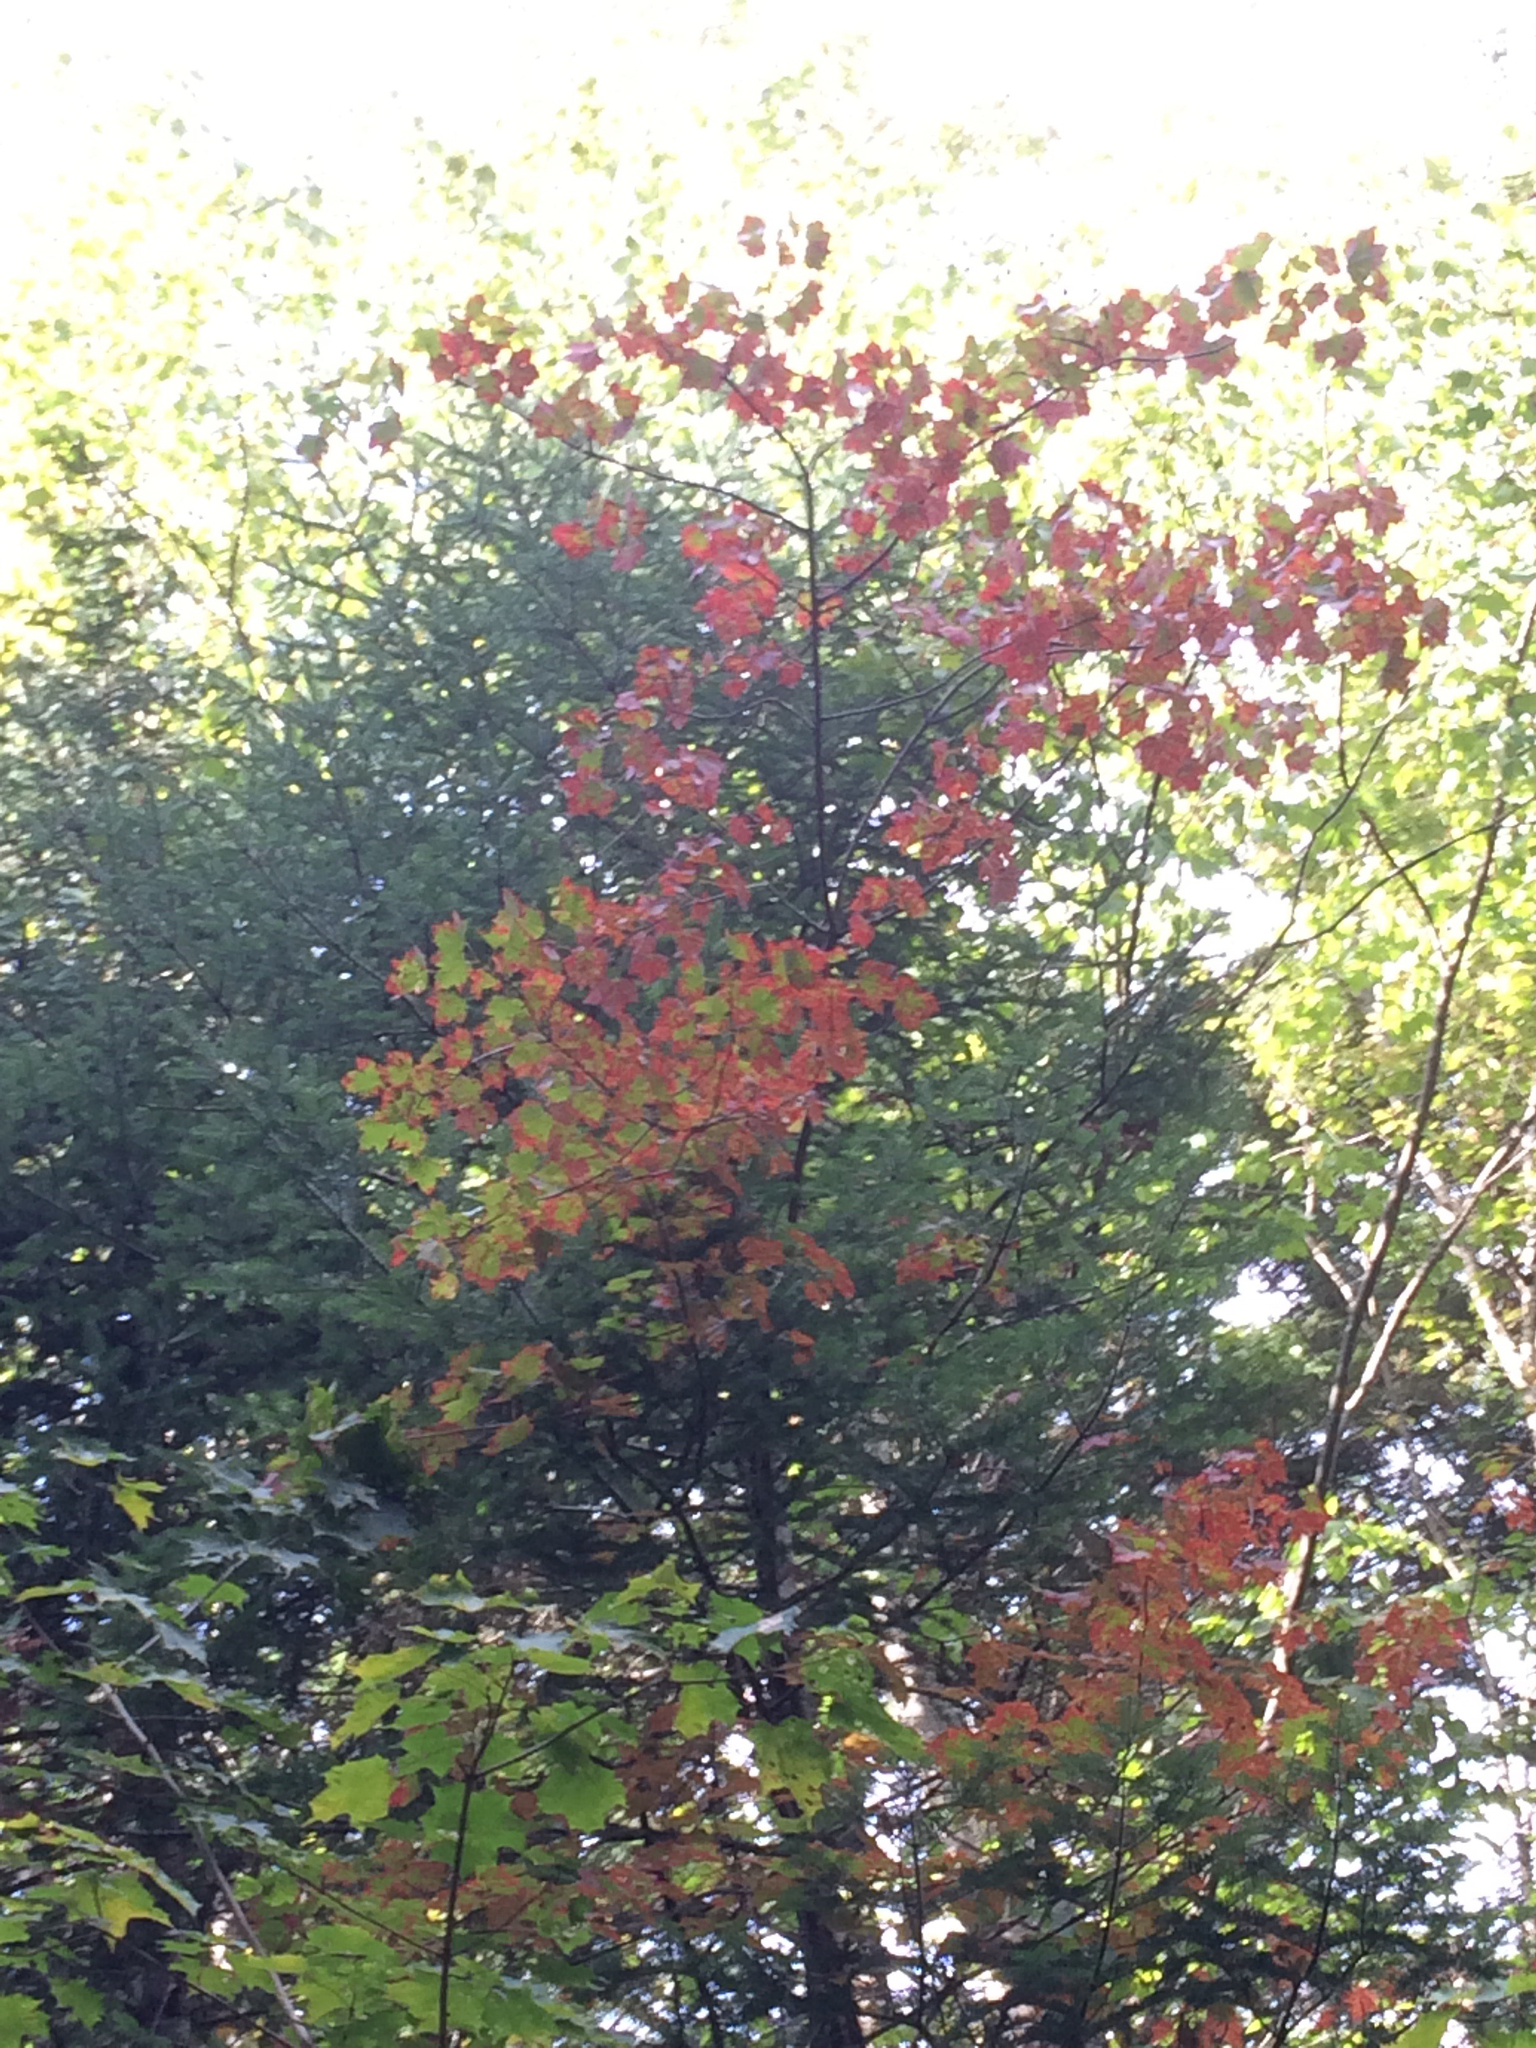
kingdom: Plantae
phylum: Tracheophyta
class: Magnoliopsida
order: Sapindales
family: Sapindaceae
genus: Acer
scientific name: Acer rubrum
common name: Red maple
